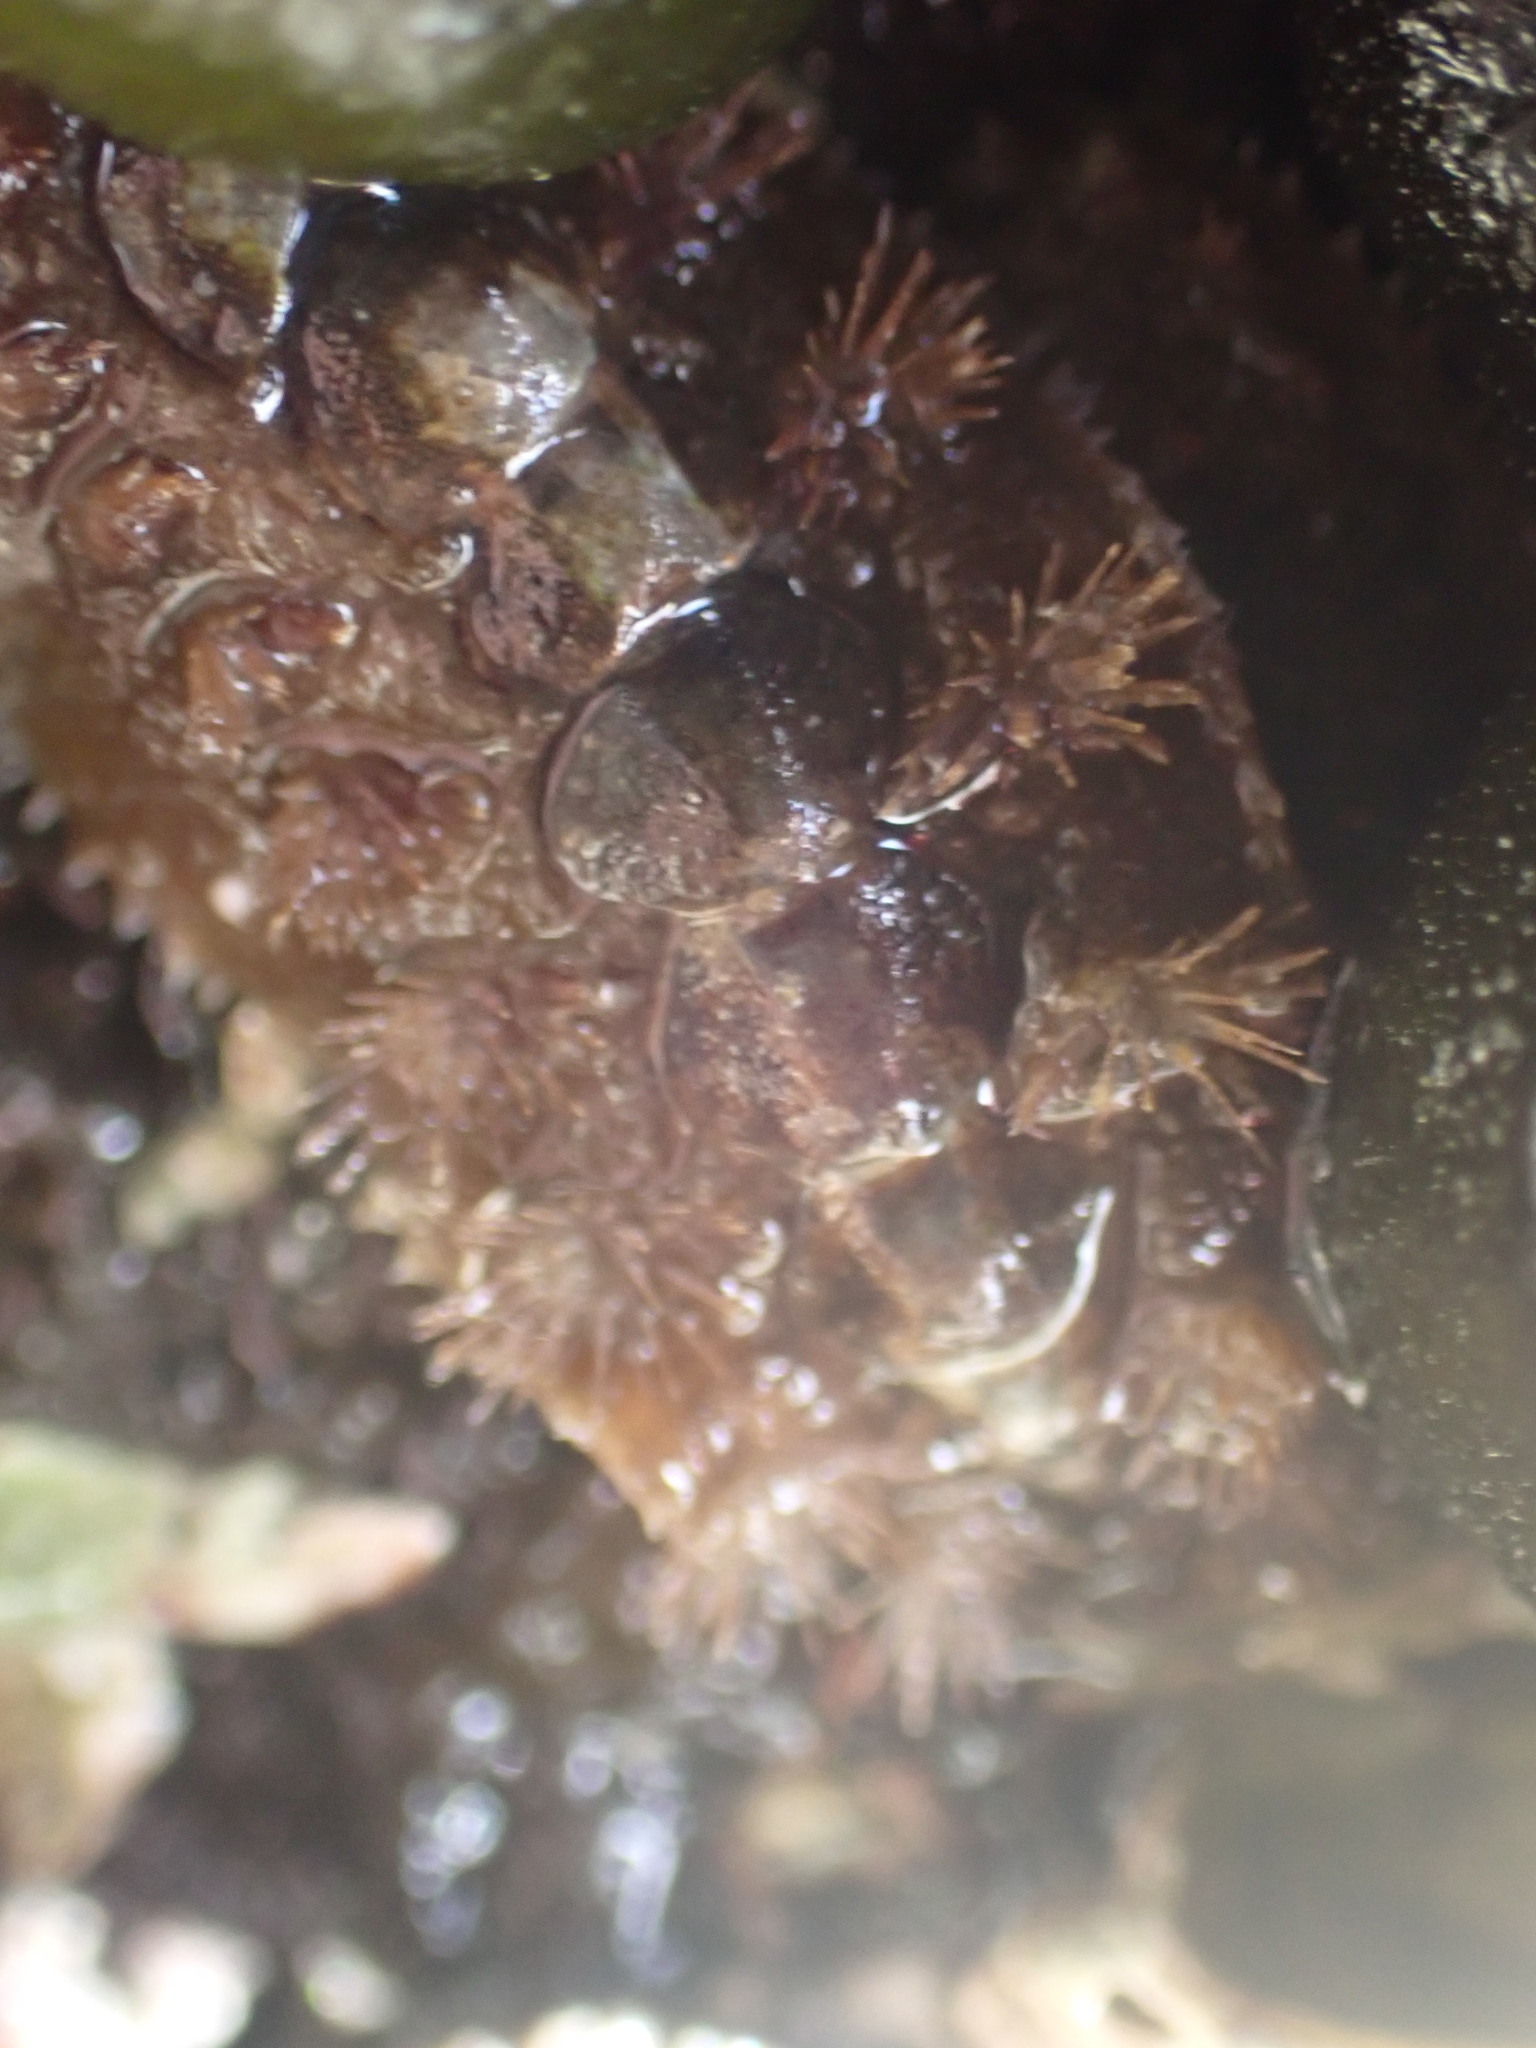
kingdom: Animalia
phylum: Mollusca
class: Polyplacophora
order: Chitonida
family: Acanthochitonidae
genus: Acanthochitona
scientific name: Acanthochitona zelandica
